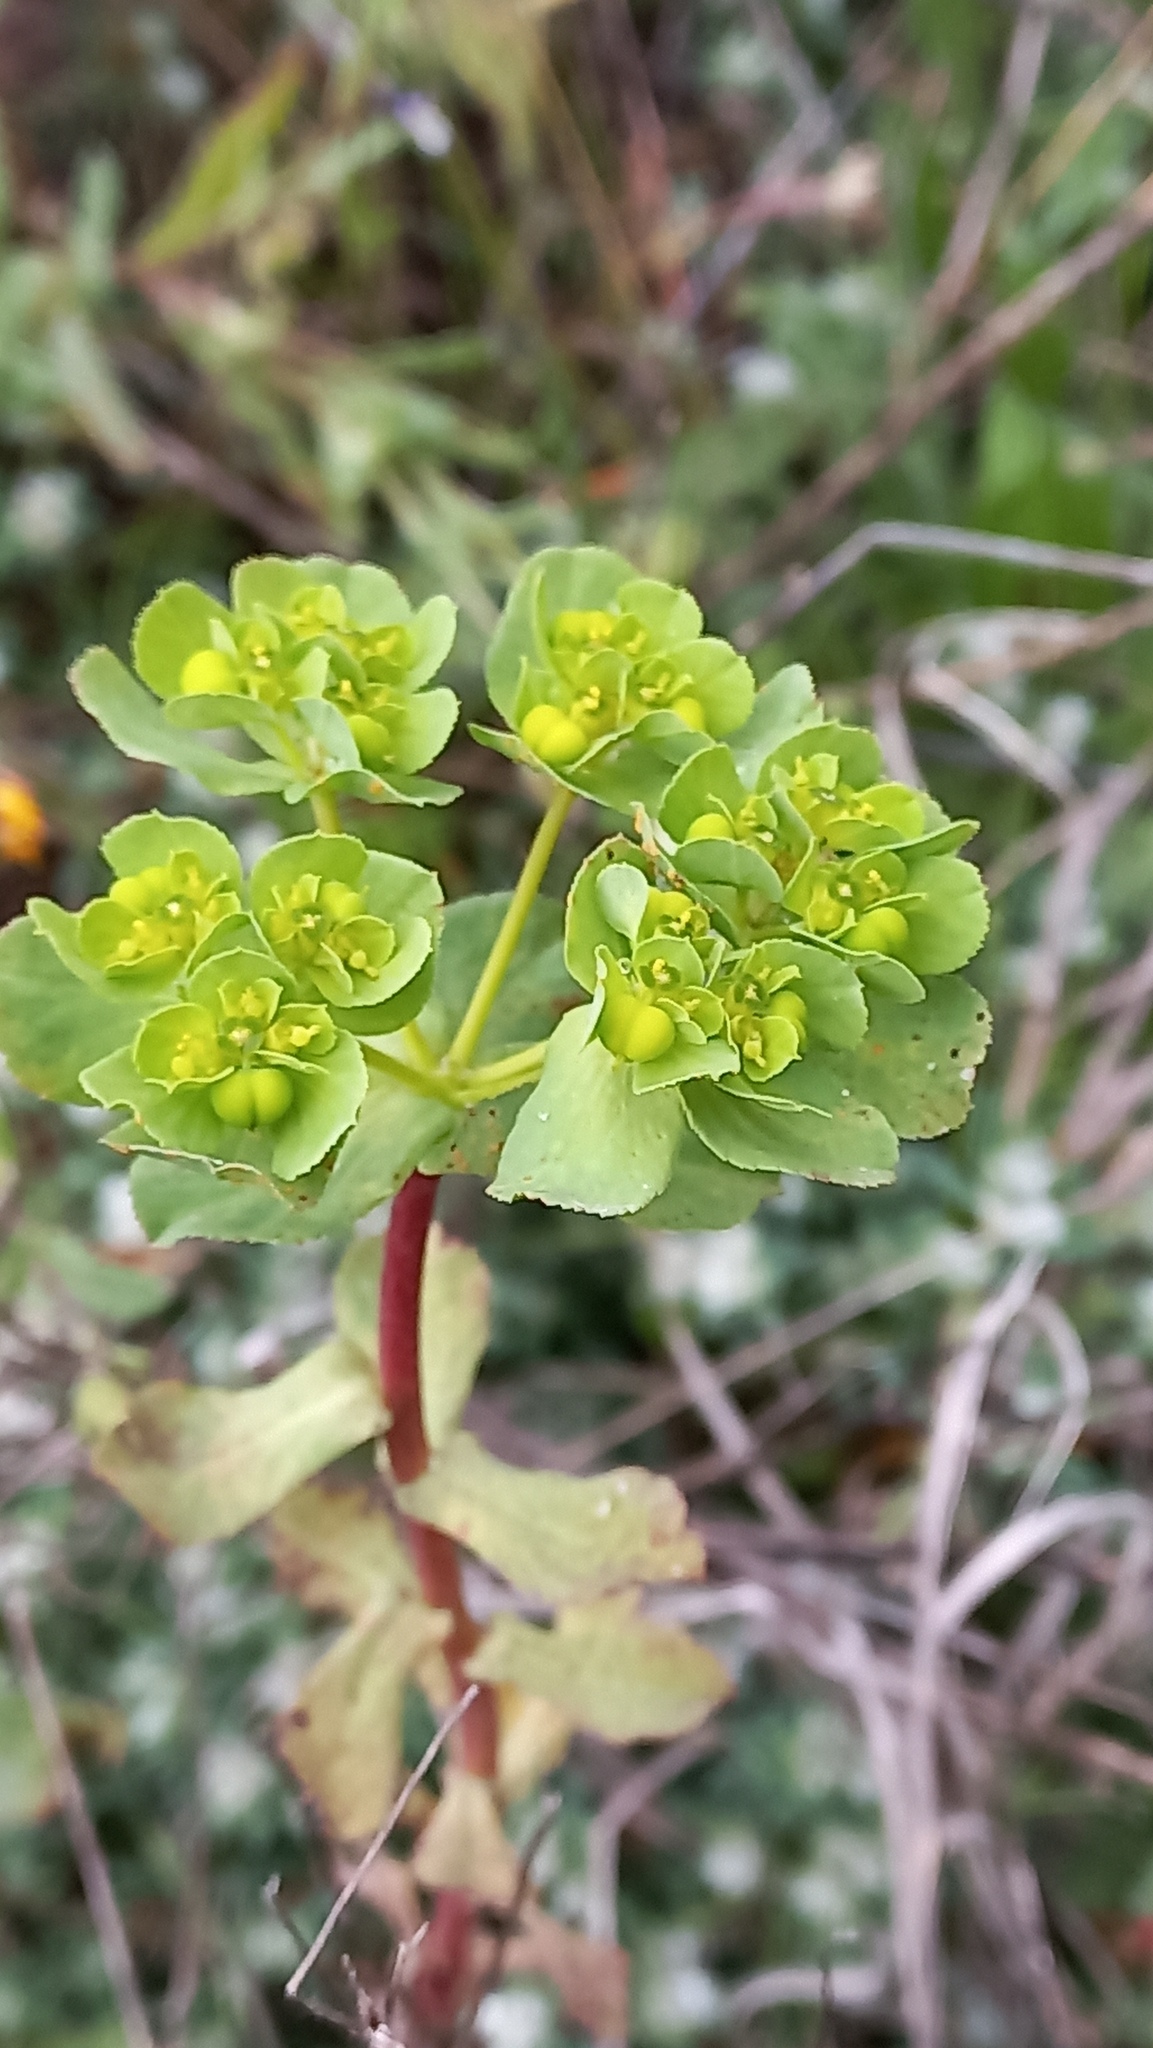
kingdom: Plantae
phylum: Tracheophyta
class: Magnoliopsida
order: Malpighiales
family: Euphorbiaceae
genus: Euphorbia
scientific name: Euphorbia helioscopia
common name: Sun spurge
